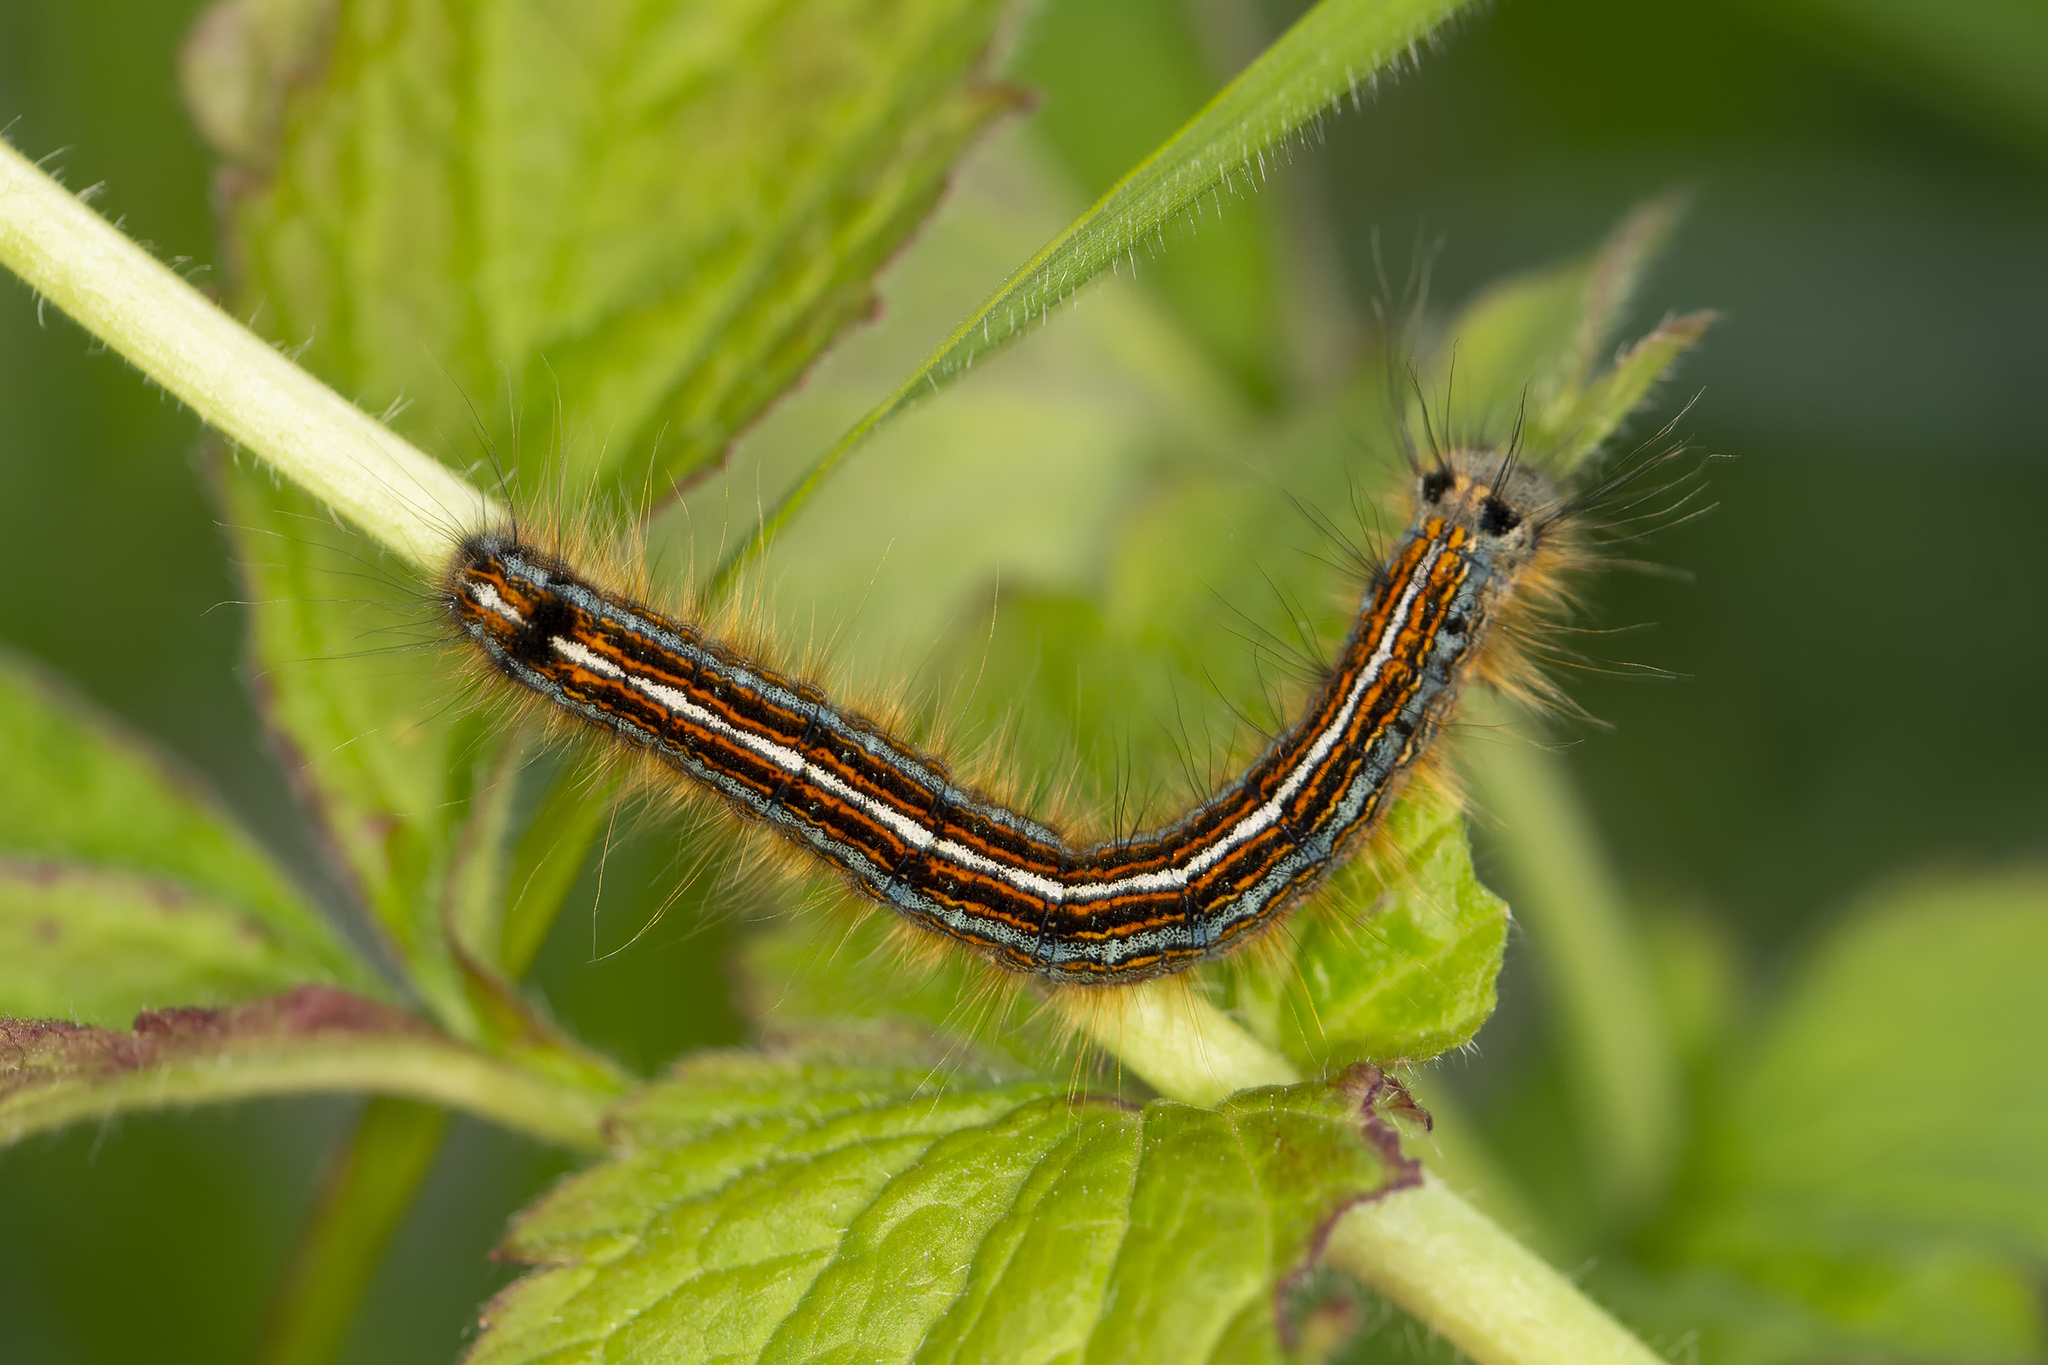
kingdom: Animalia
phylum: Arthropoda
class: Insecta
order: Lepidoptera
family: Lasiocampidae
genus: Malacosoma
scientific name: Malacosoma neustria
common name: The lackey
